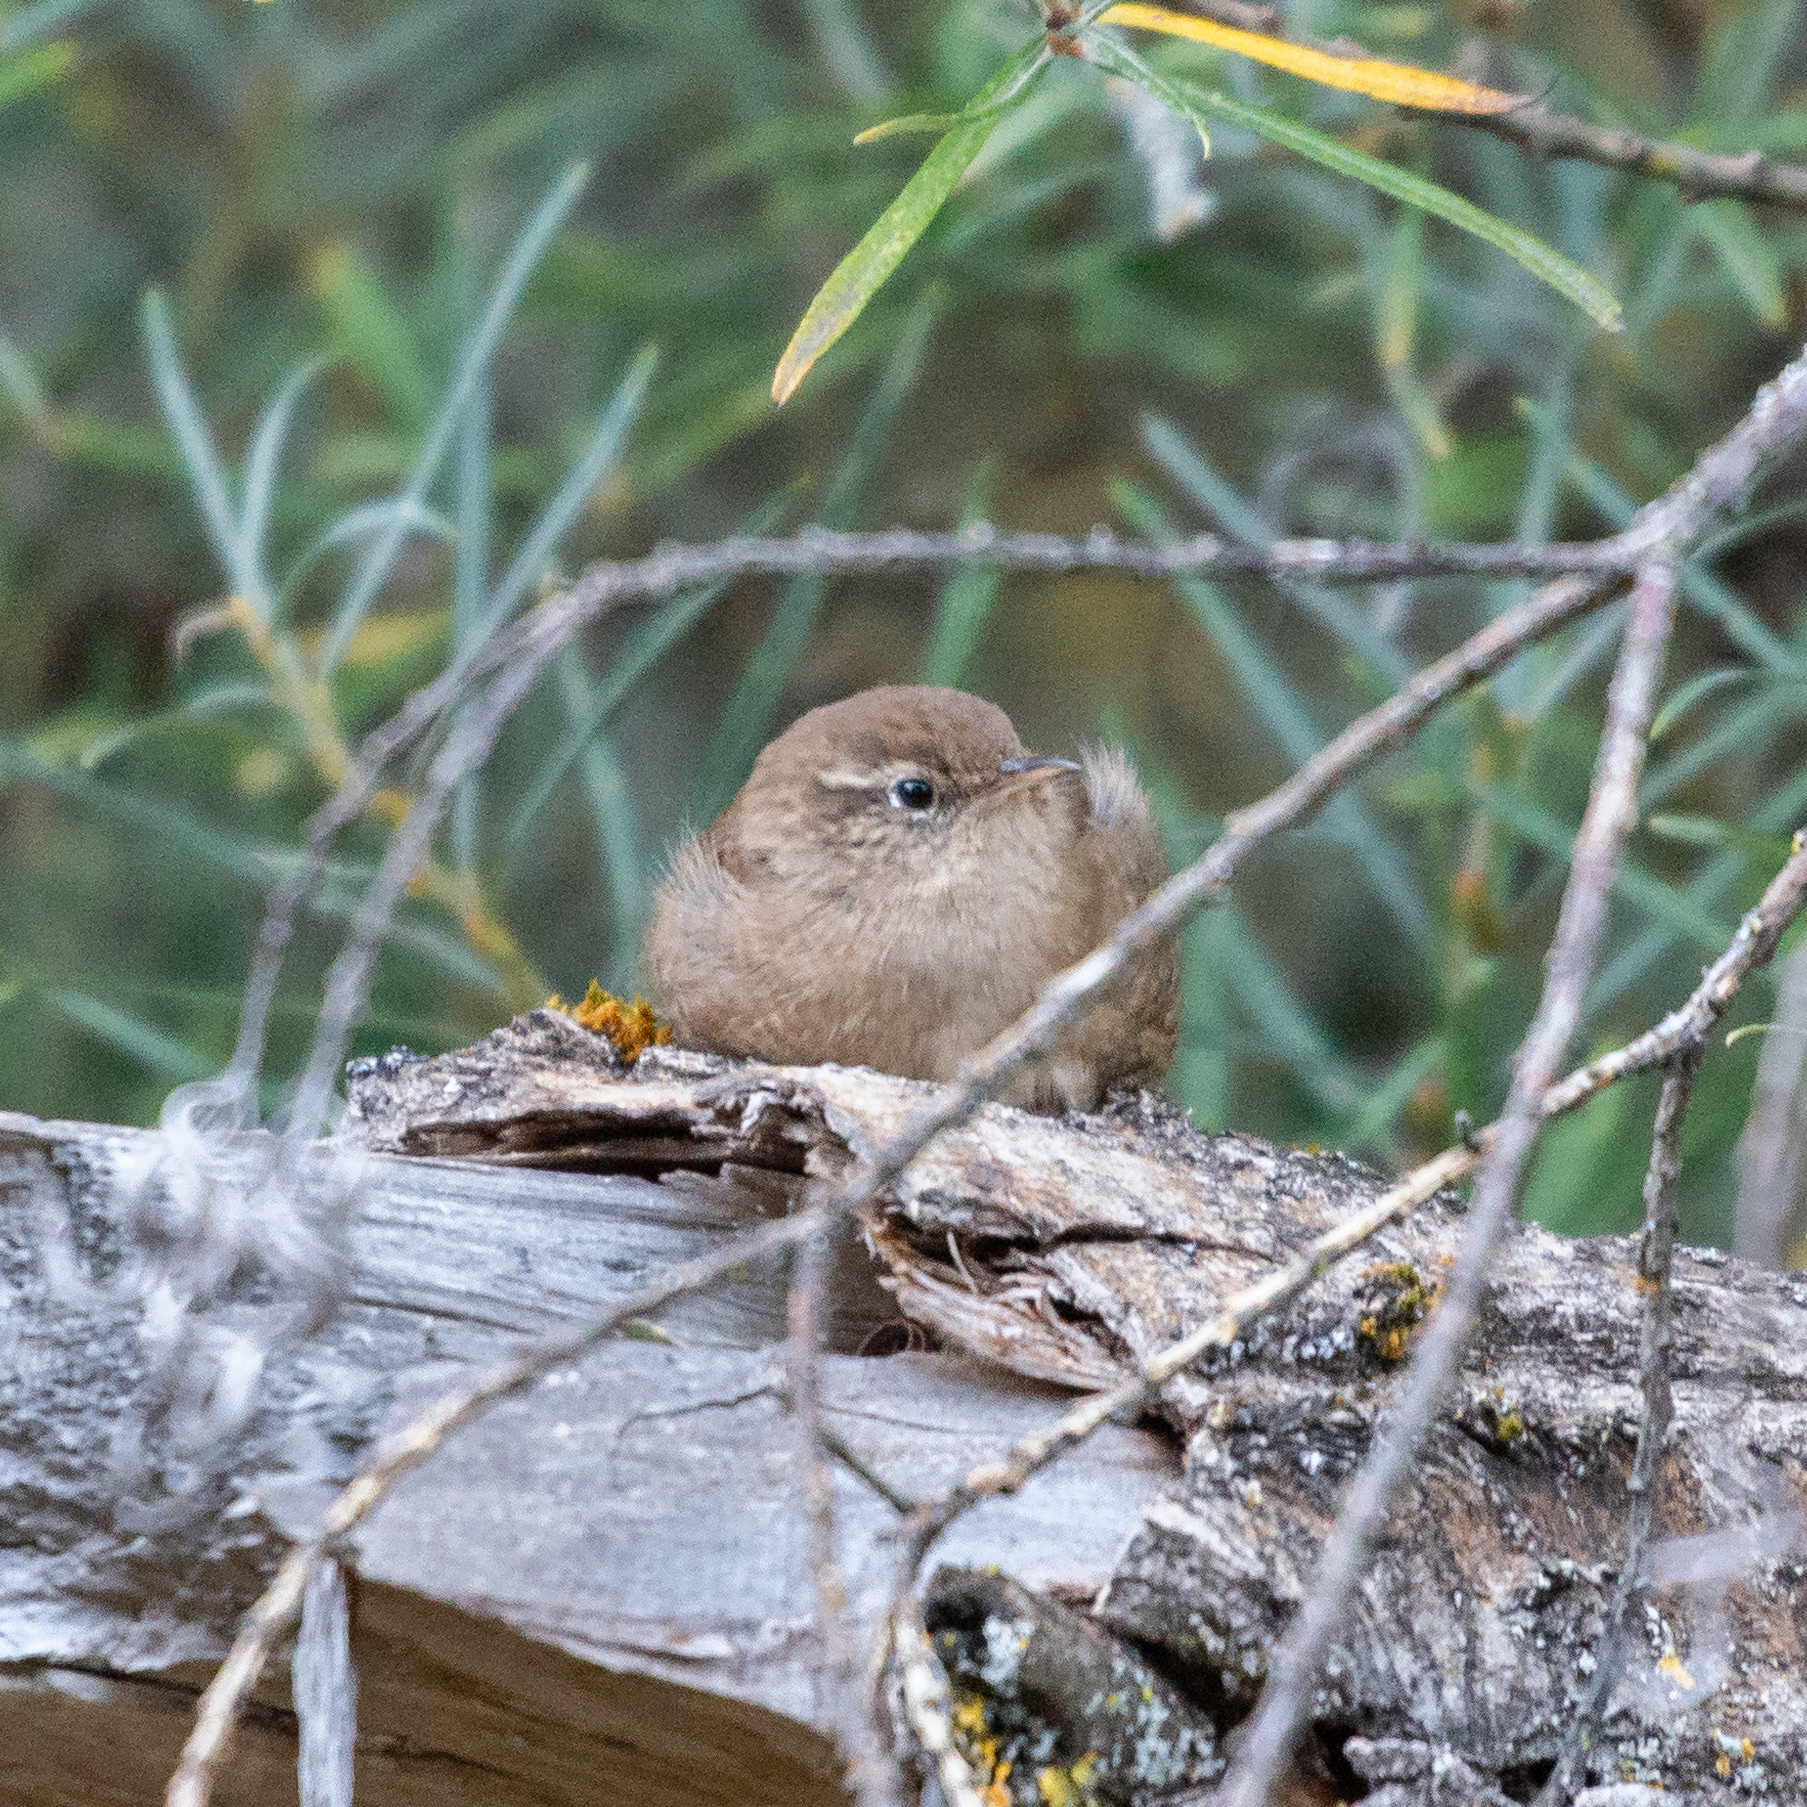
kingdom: Animalia
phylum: Chordata
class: Aves
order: Passeriformes
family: Troglodytidae
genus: Troglodytes
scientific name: Troglodytes troglodytes
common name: Eurasian wren
